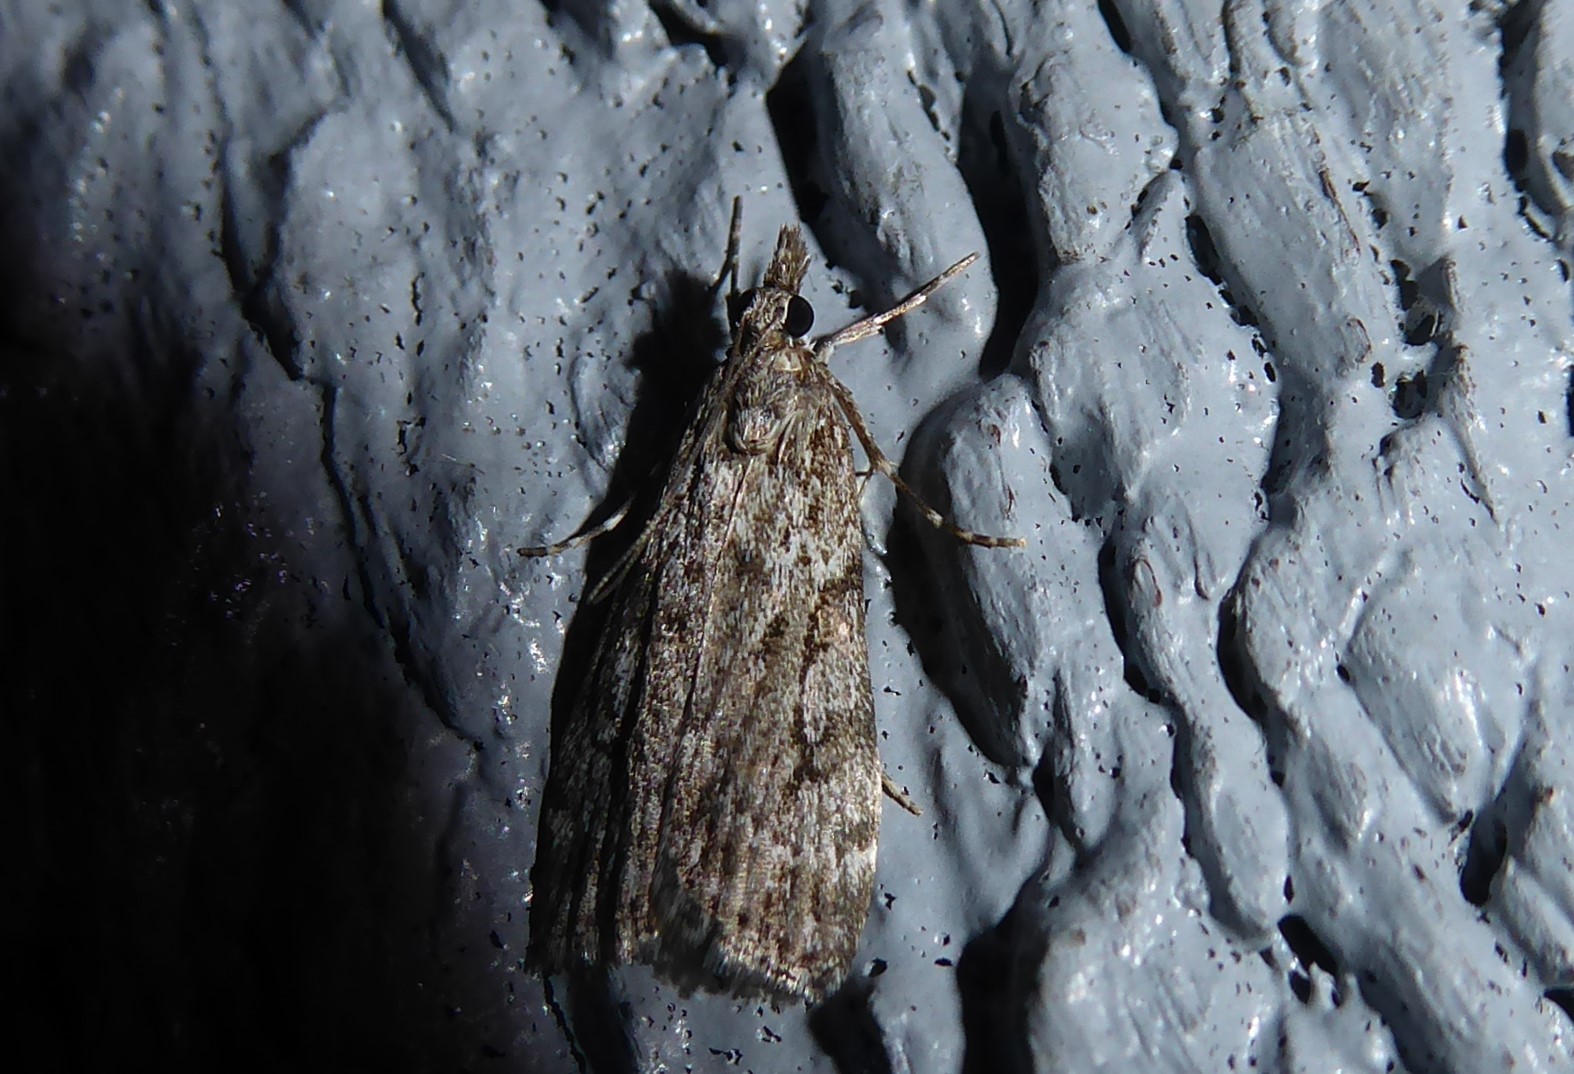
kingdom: Animalia
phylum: Arthropoda
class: Insecta
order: Lepidoptera
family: Crambidae
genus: Eudonia
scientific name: Eudonia cymatias
